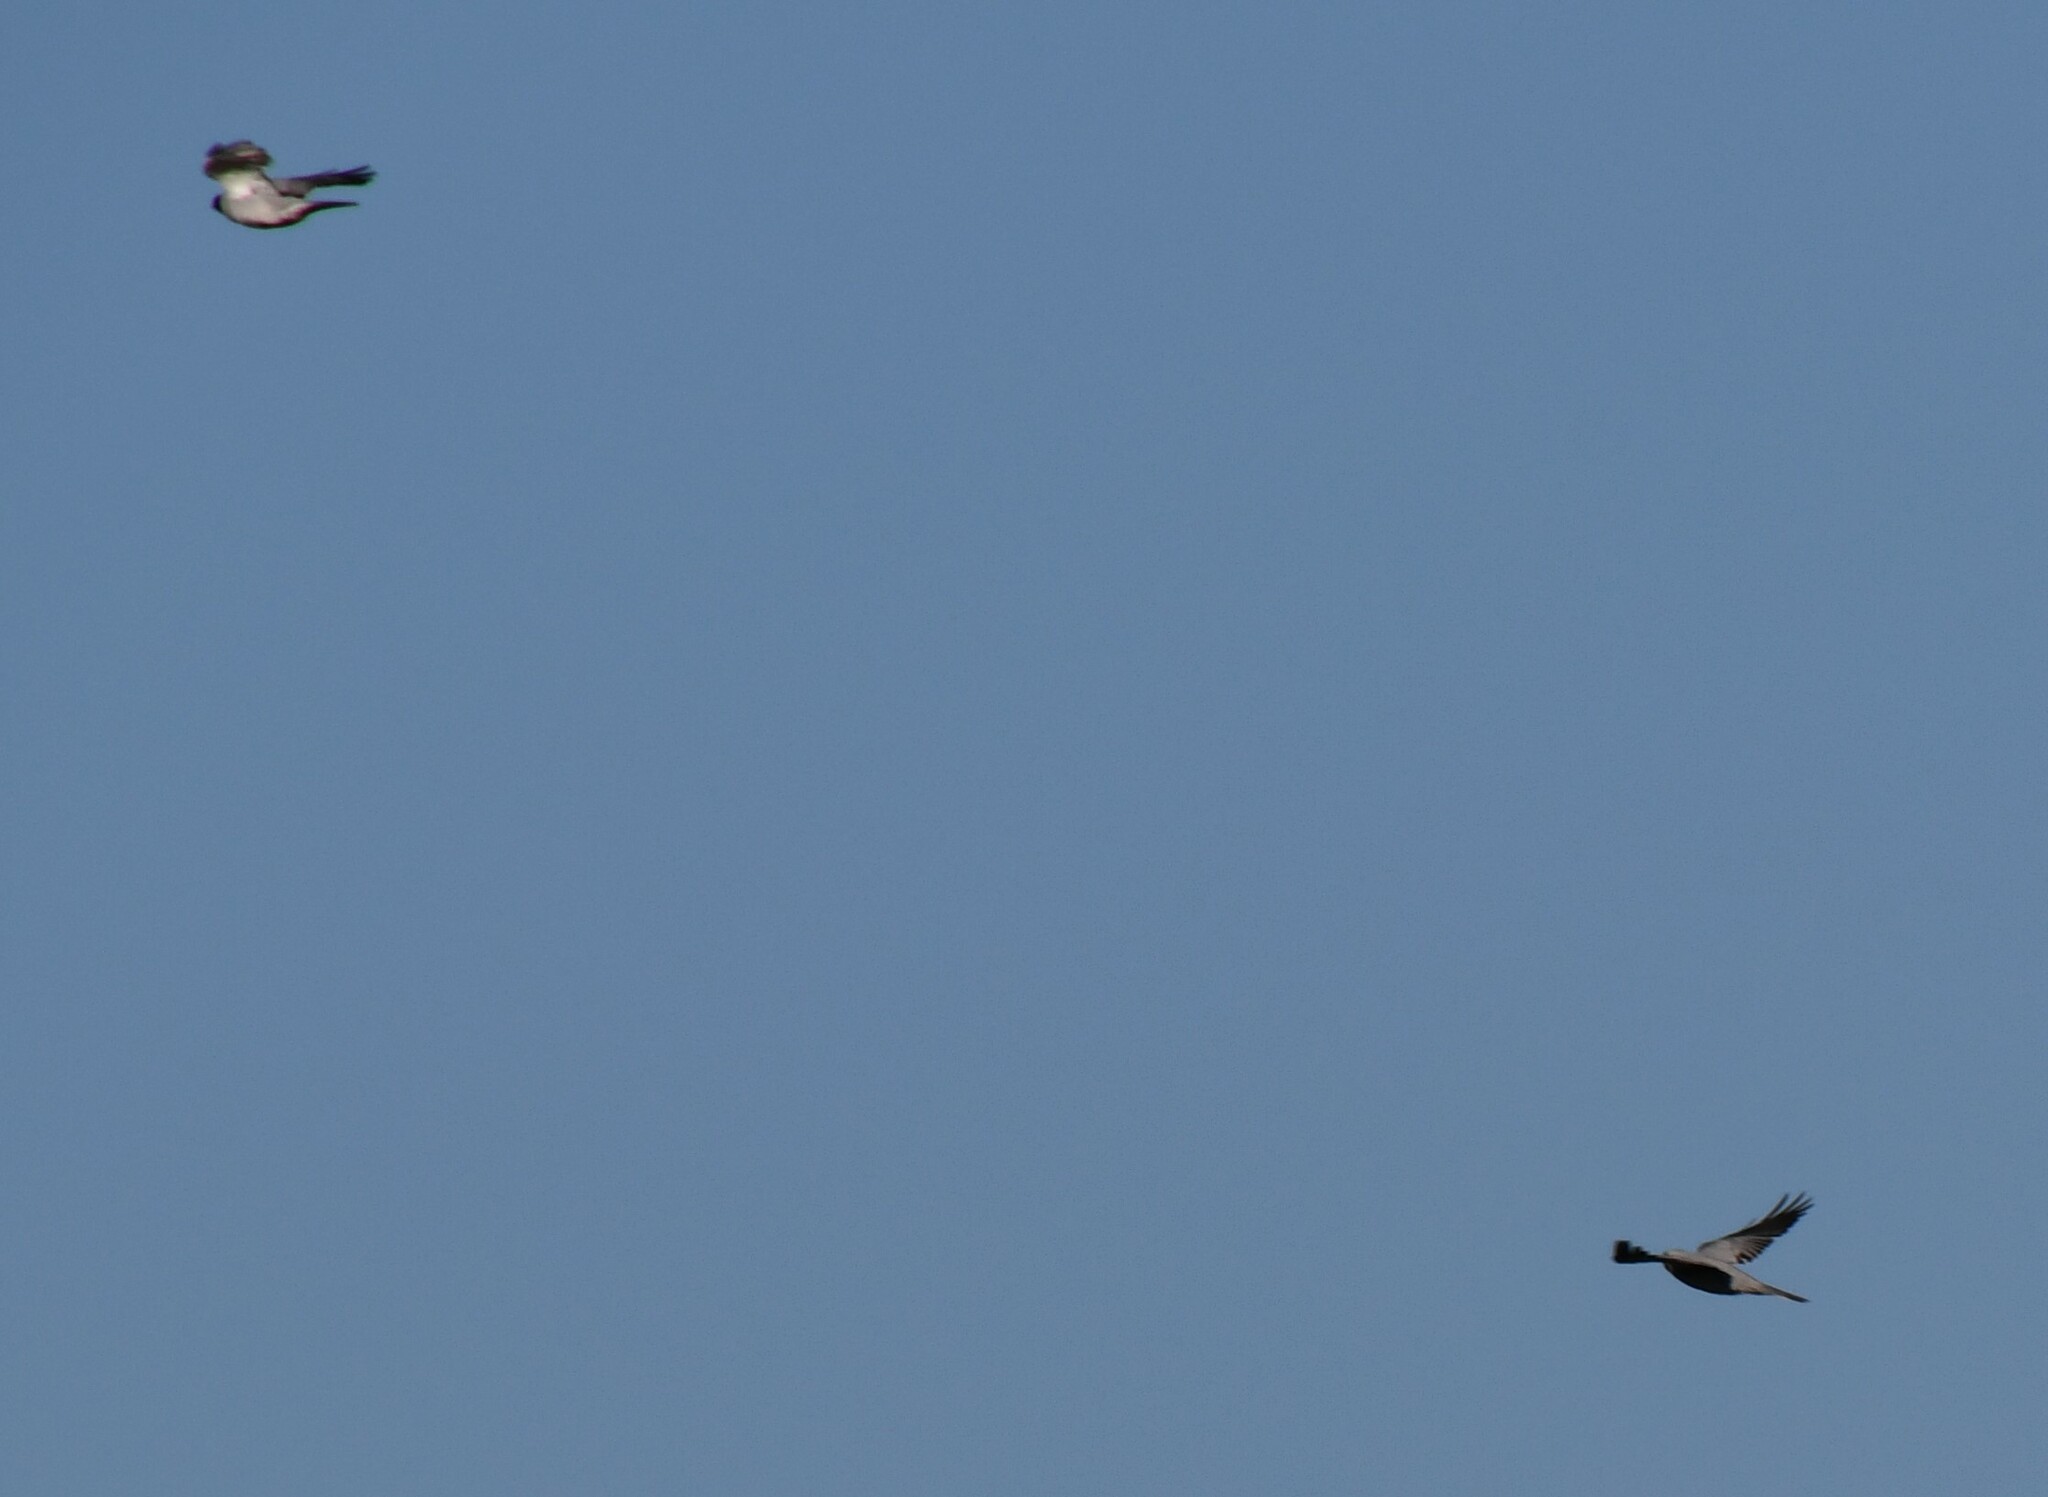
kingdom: Animalia
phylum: Chordata
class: Aves
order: Passeriformes
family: Campephagidae
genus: Coracina
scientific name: Coracina novaehollandiae
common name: Black-faced cuckooshrike
